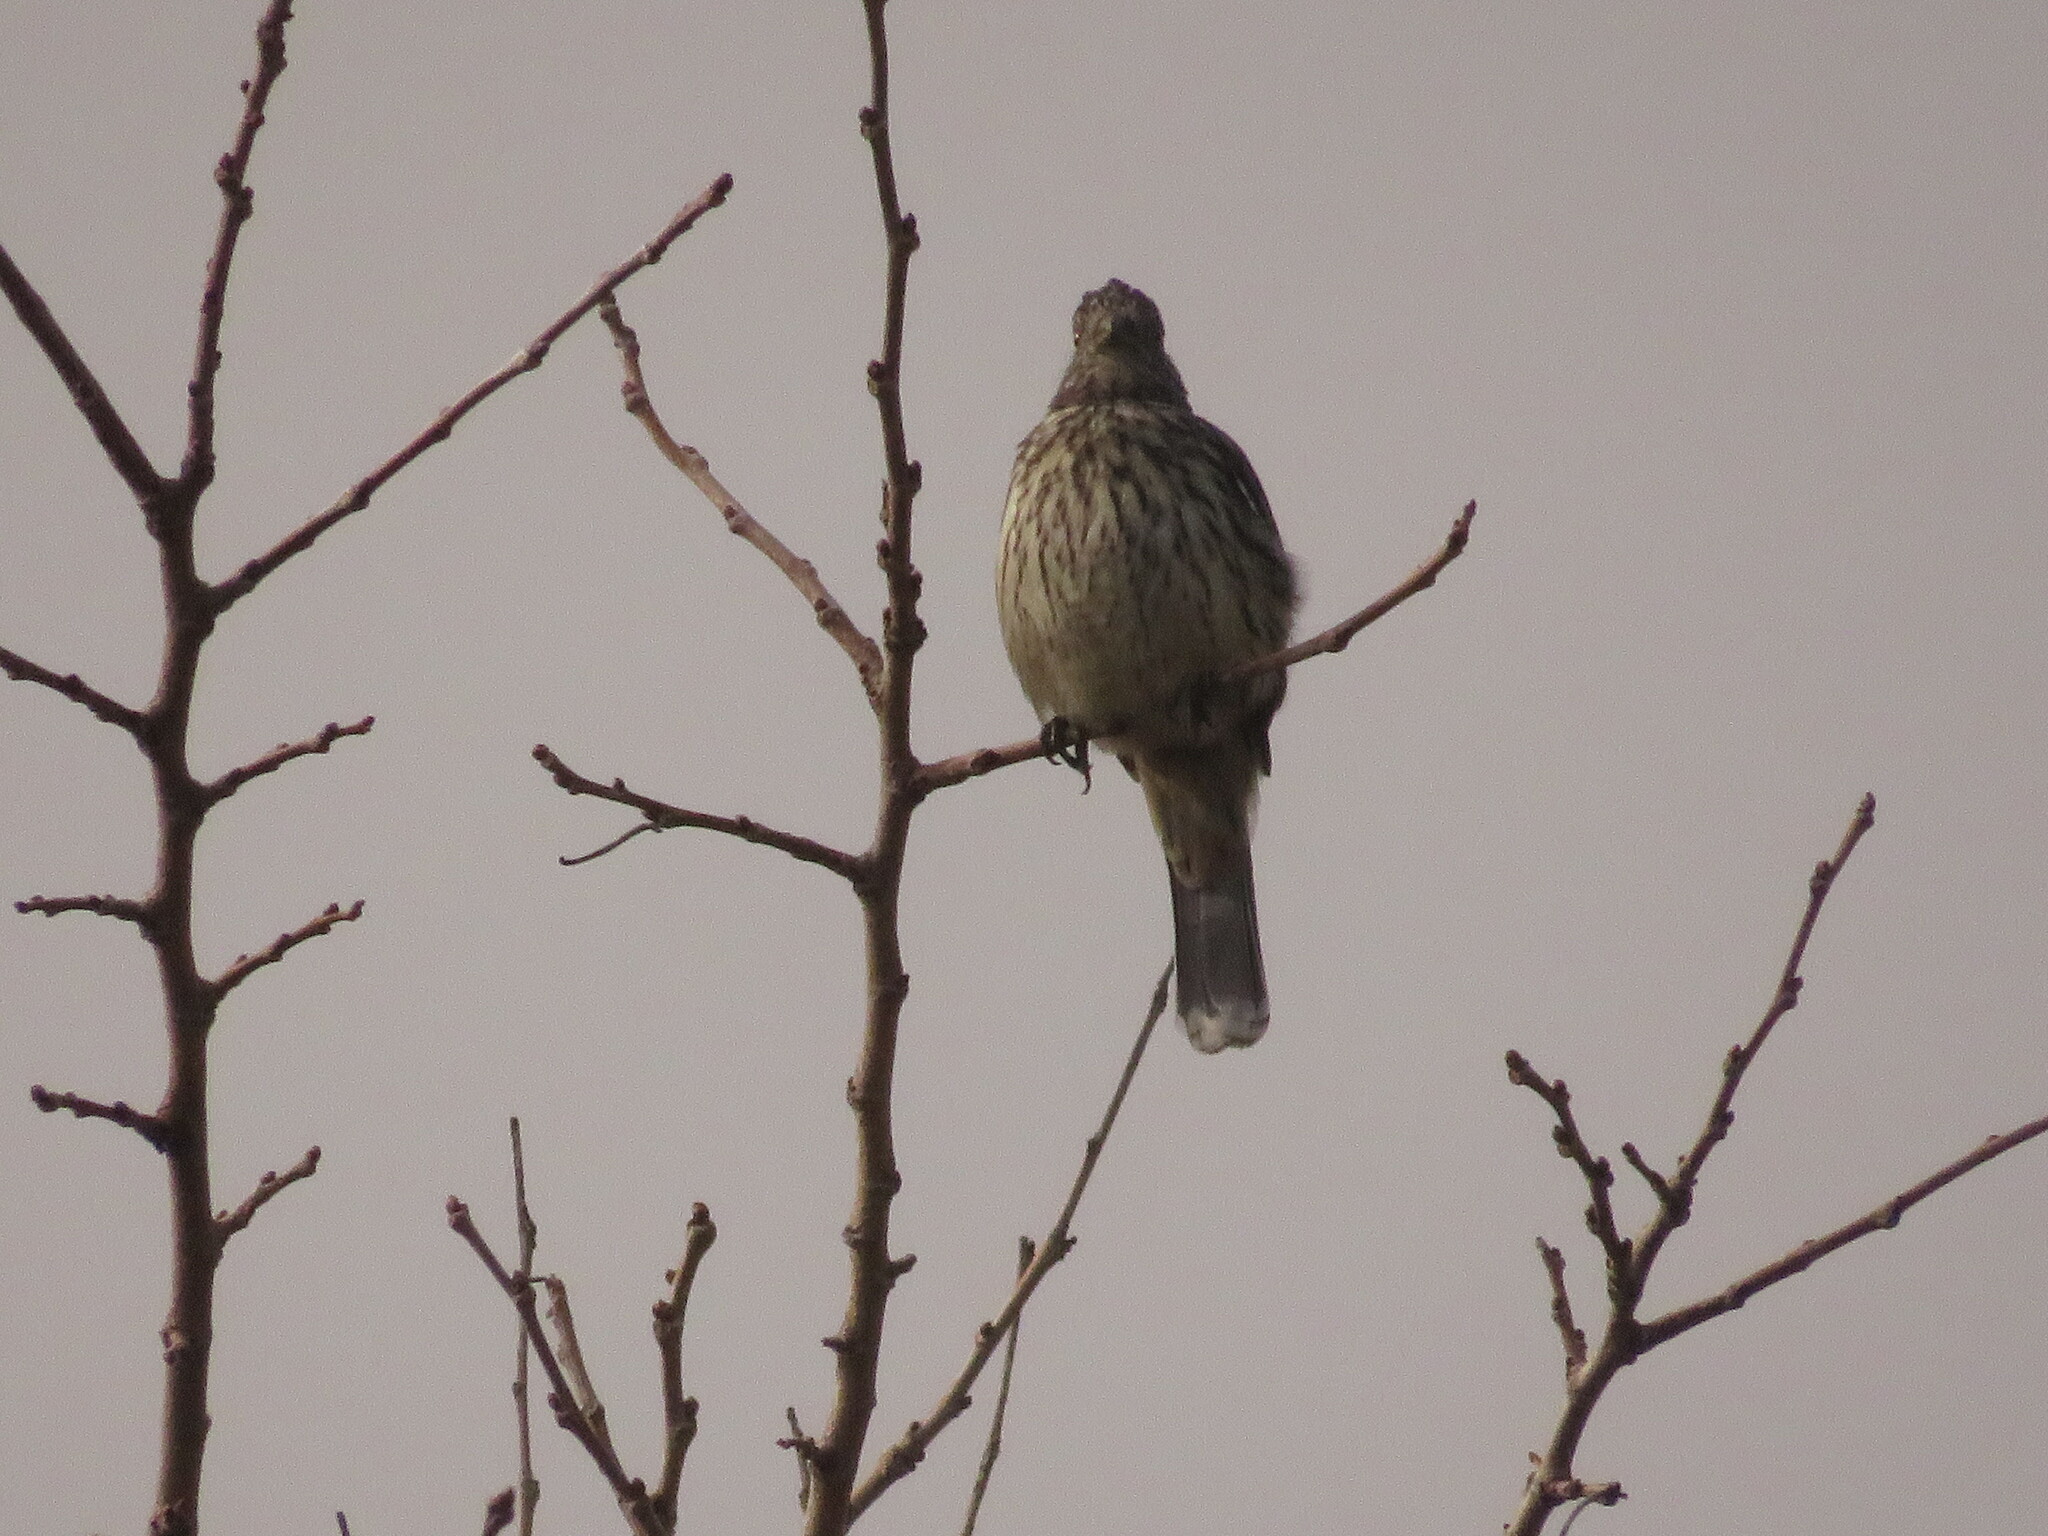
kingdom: Animalia
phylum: Chordata
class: Aves
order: Passeriformes
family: Cotingidae
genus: Phytotoma
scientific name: Phytotoma rutila
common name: White-tipped plantcutter
